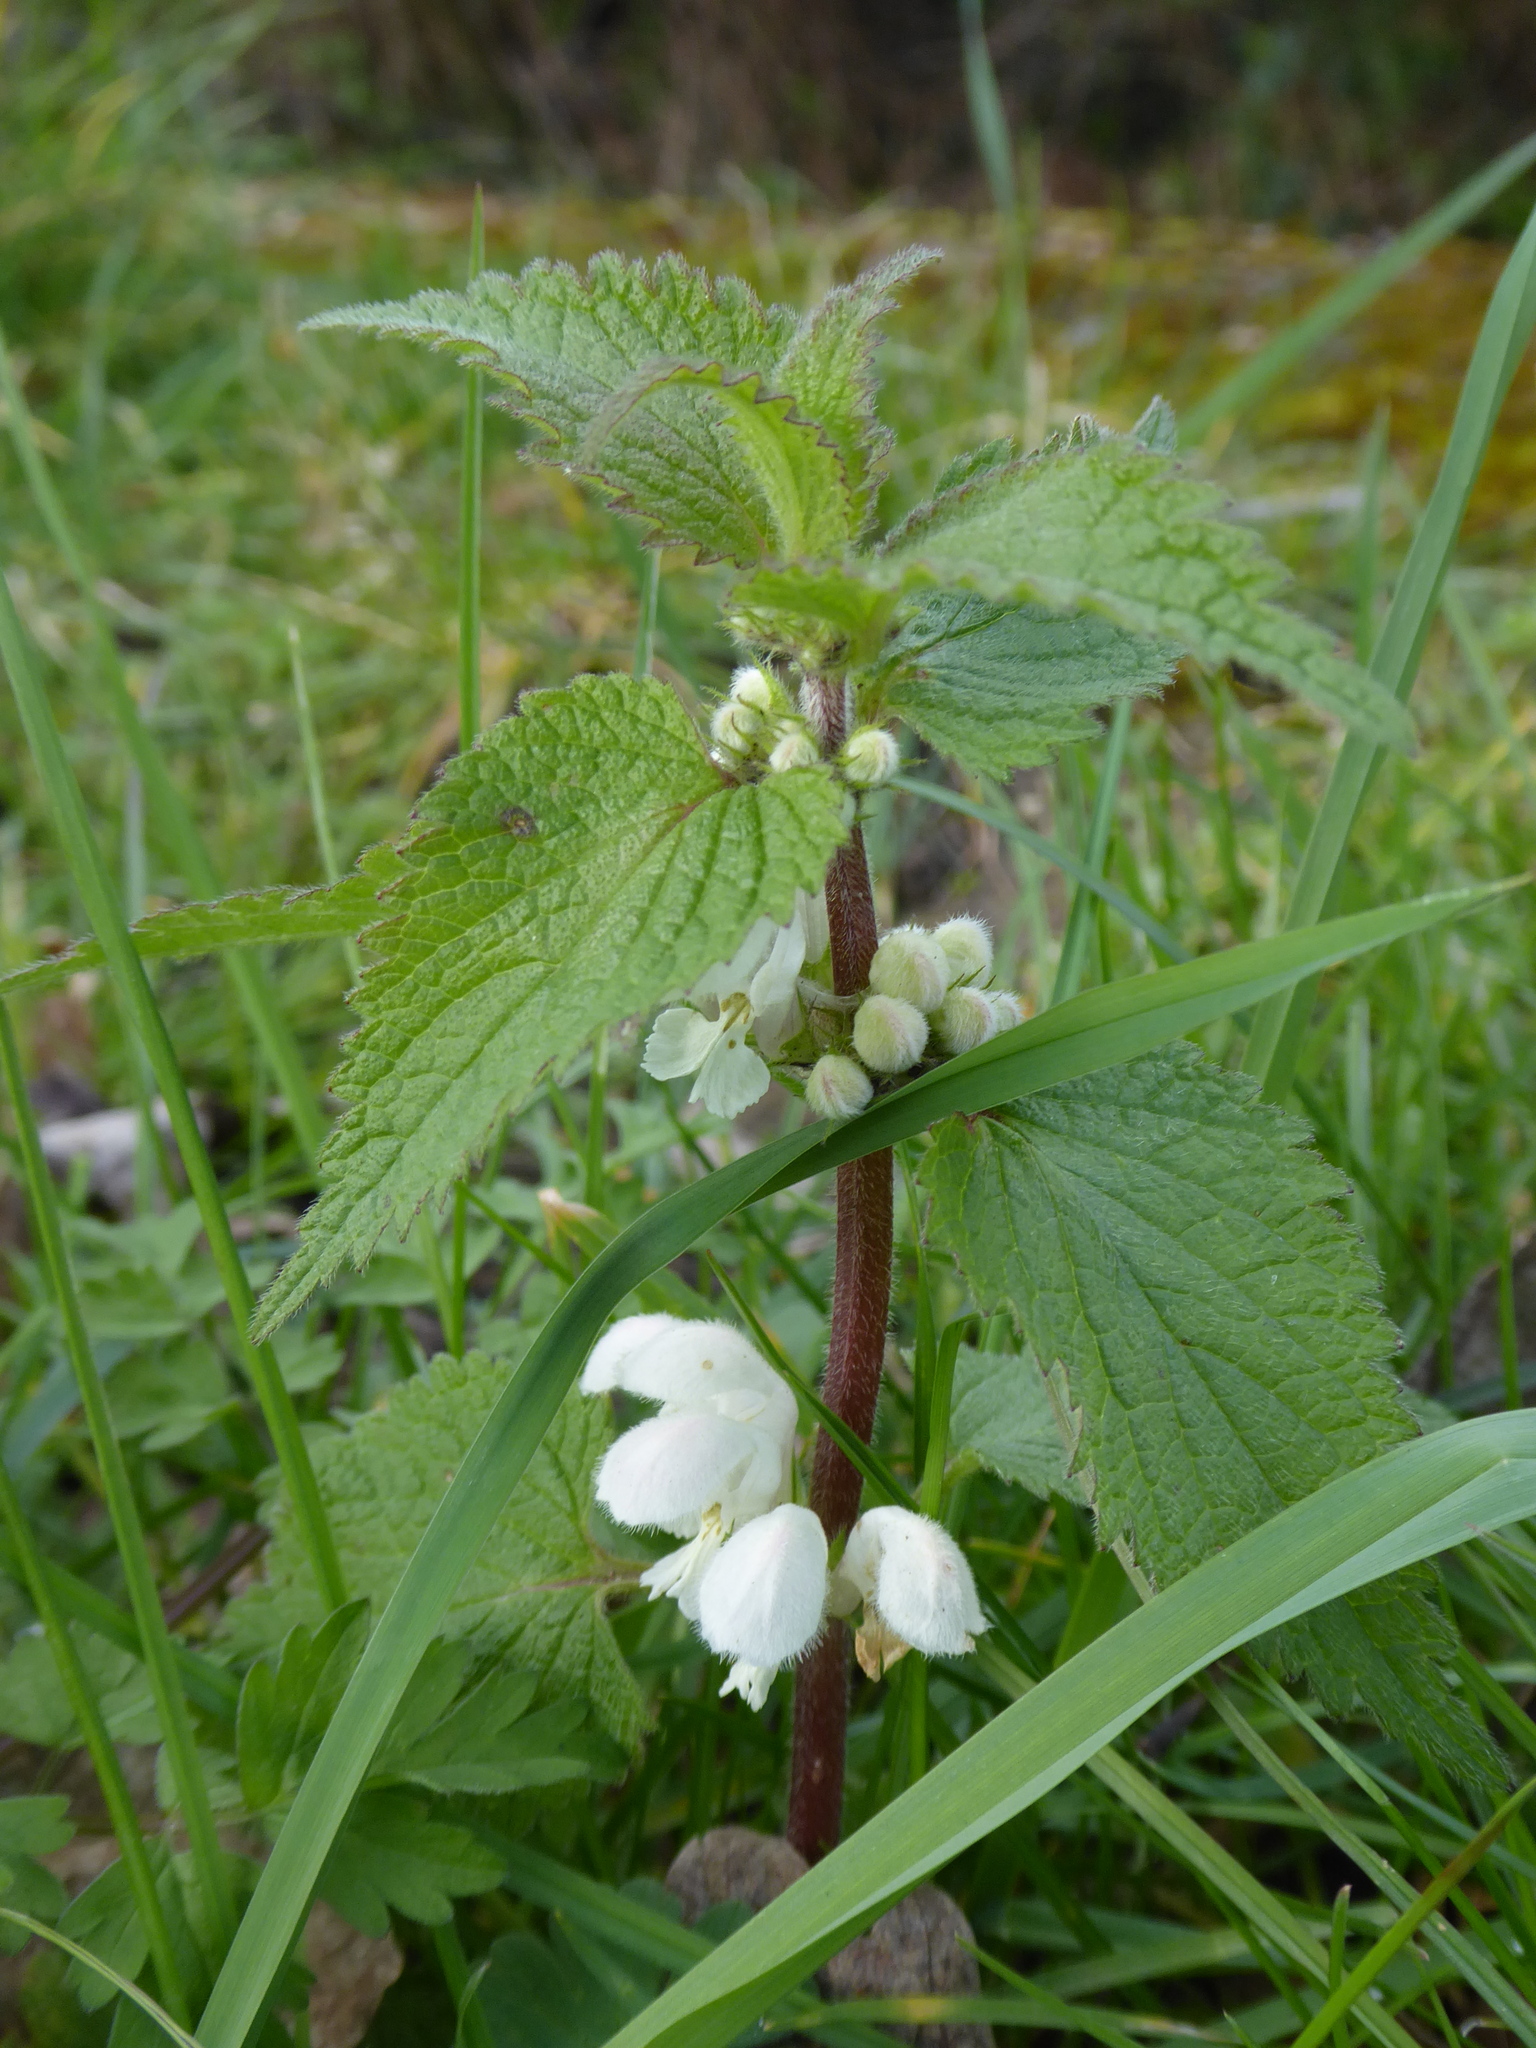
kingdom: Plantae
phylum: Tracheophyta
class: Magnoliopsida
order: Lamiales
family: Lamiaceae
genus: Lamium
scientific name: Lamium album
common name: White dead-nettle
